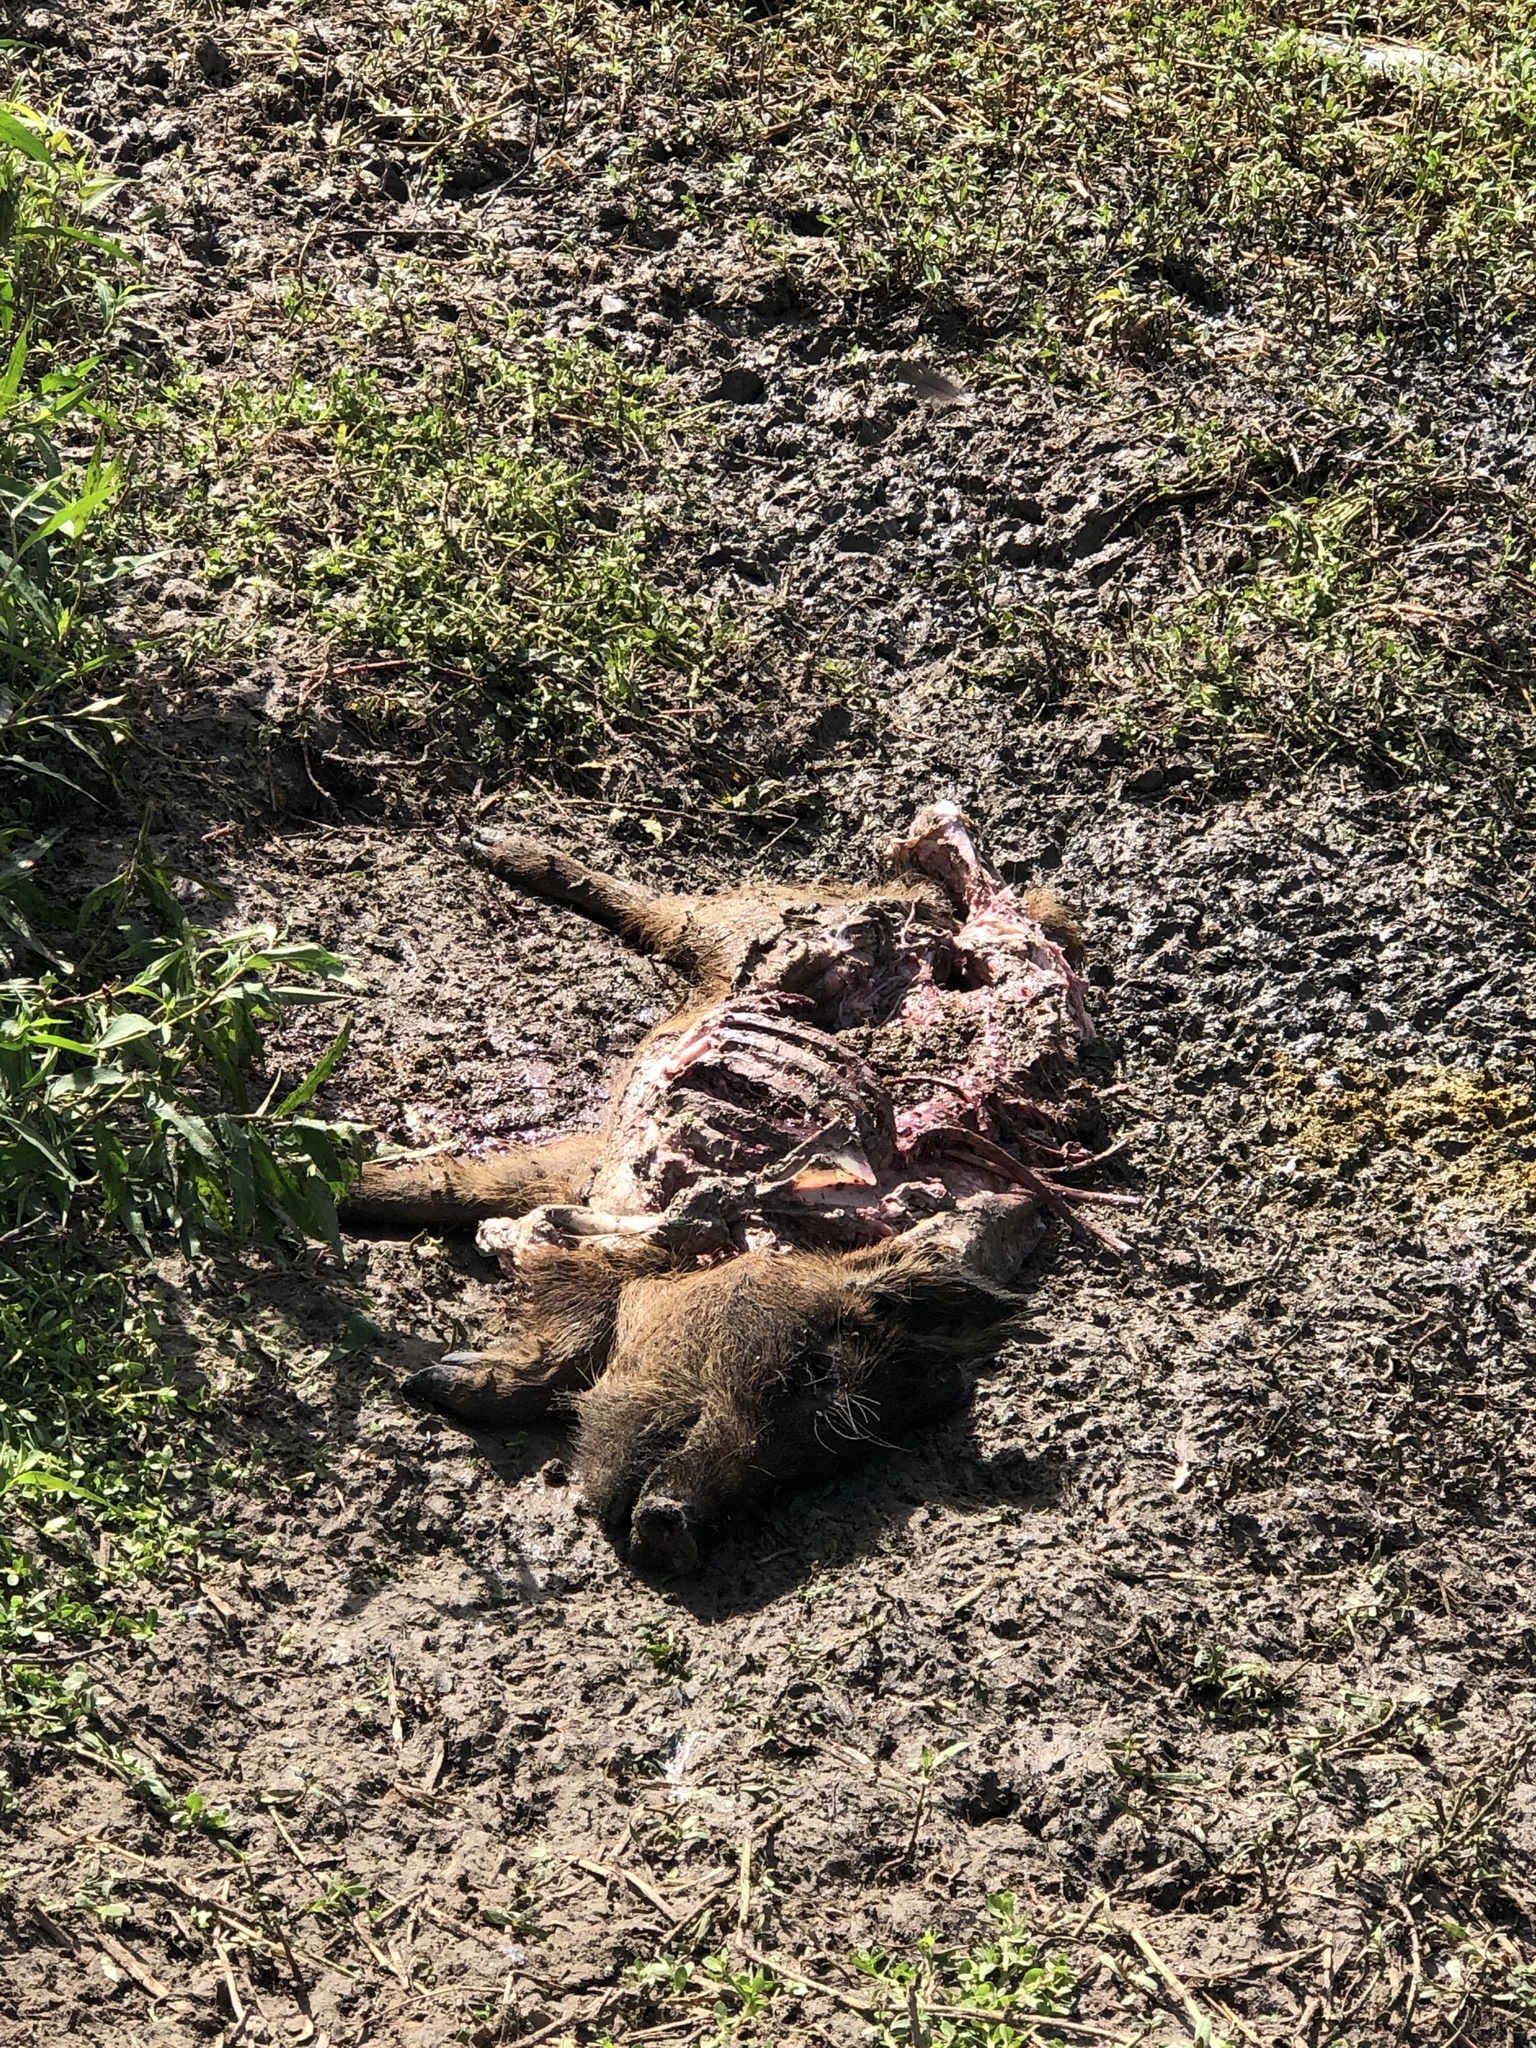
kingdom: Animalia
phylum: Chordata
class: Mammalia
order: Artiodactyla
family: Suidae
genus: Sus
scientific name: Sus scrofa
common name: Wild boar
